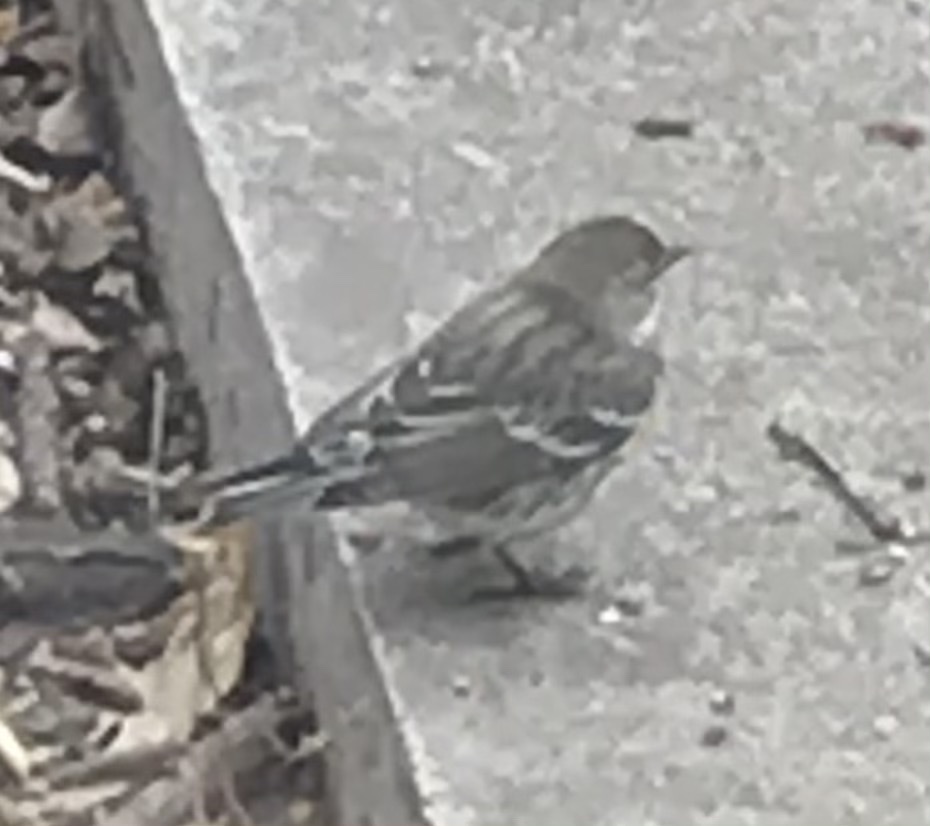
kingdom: Animalia
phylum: Chordata
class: Aves
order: Passeriformes
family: Parulidae
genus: Setophaga
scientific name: Setophaga coronata
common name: Myrtle warbler
